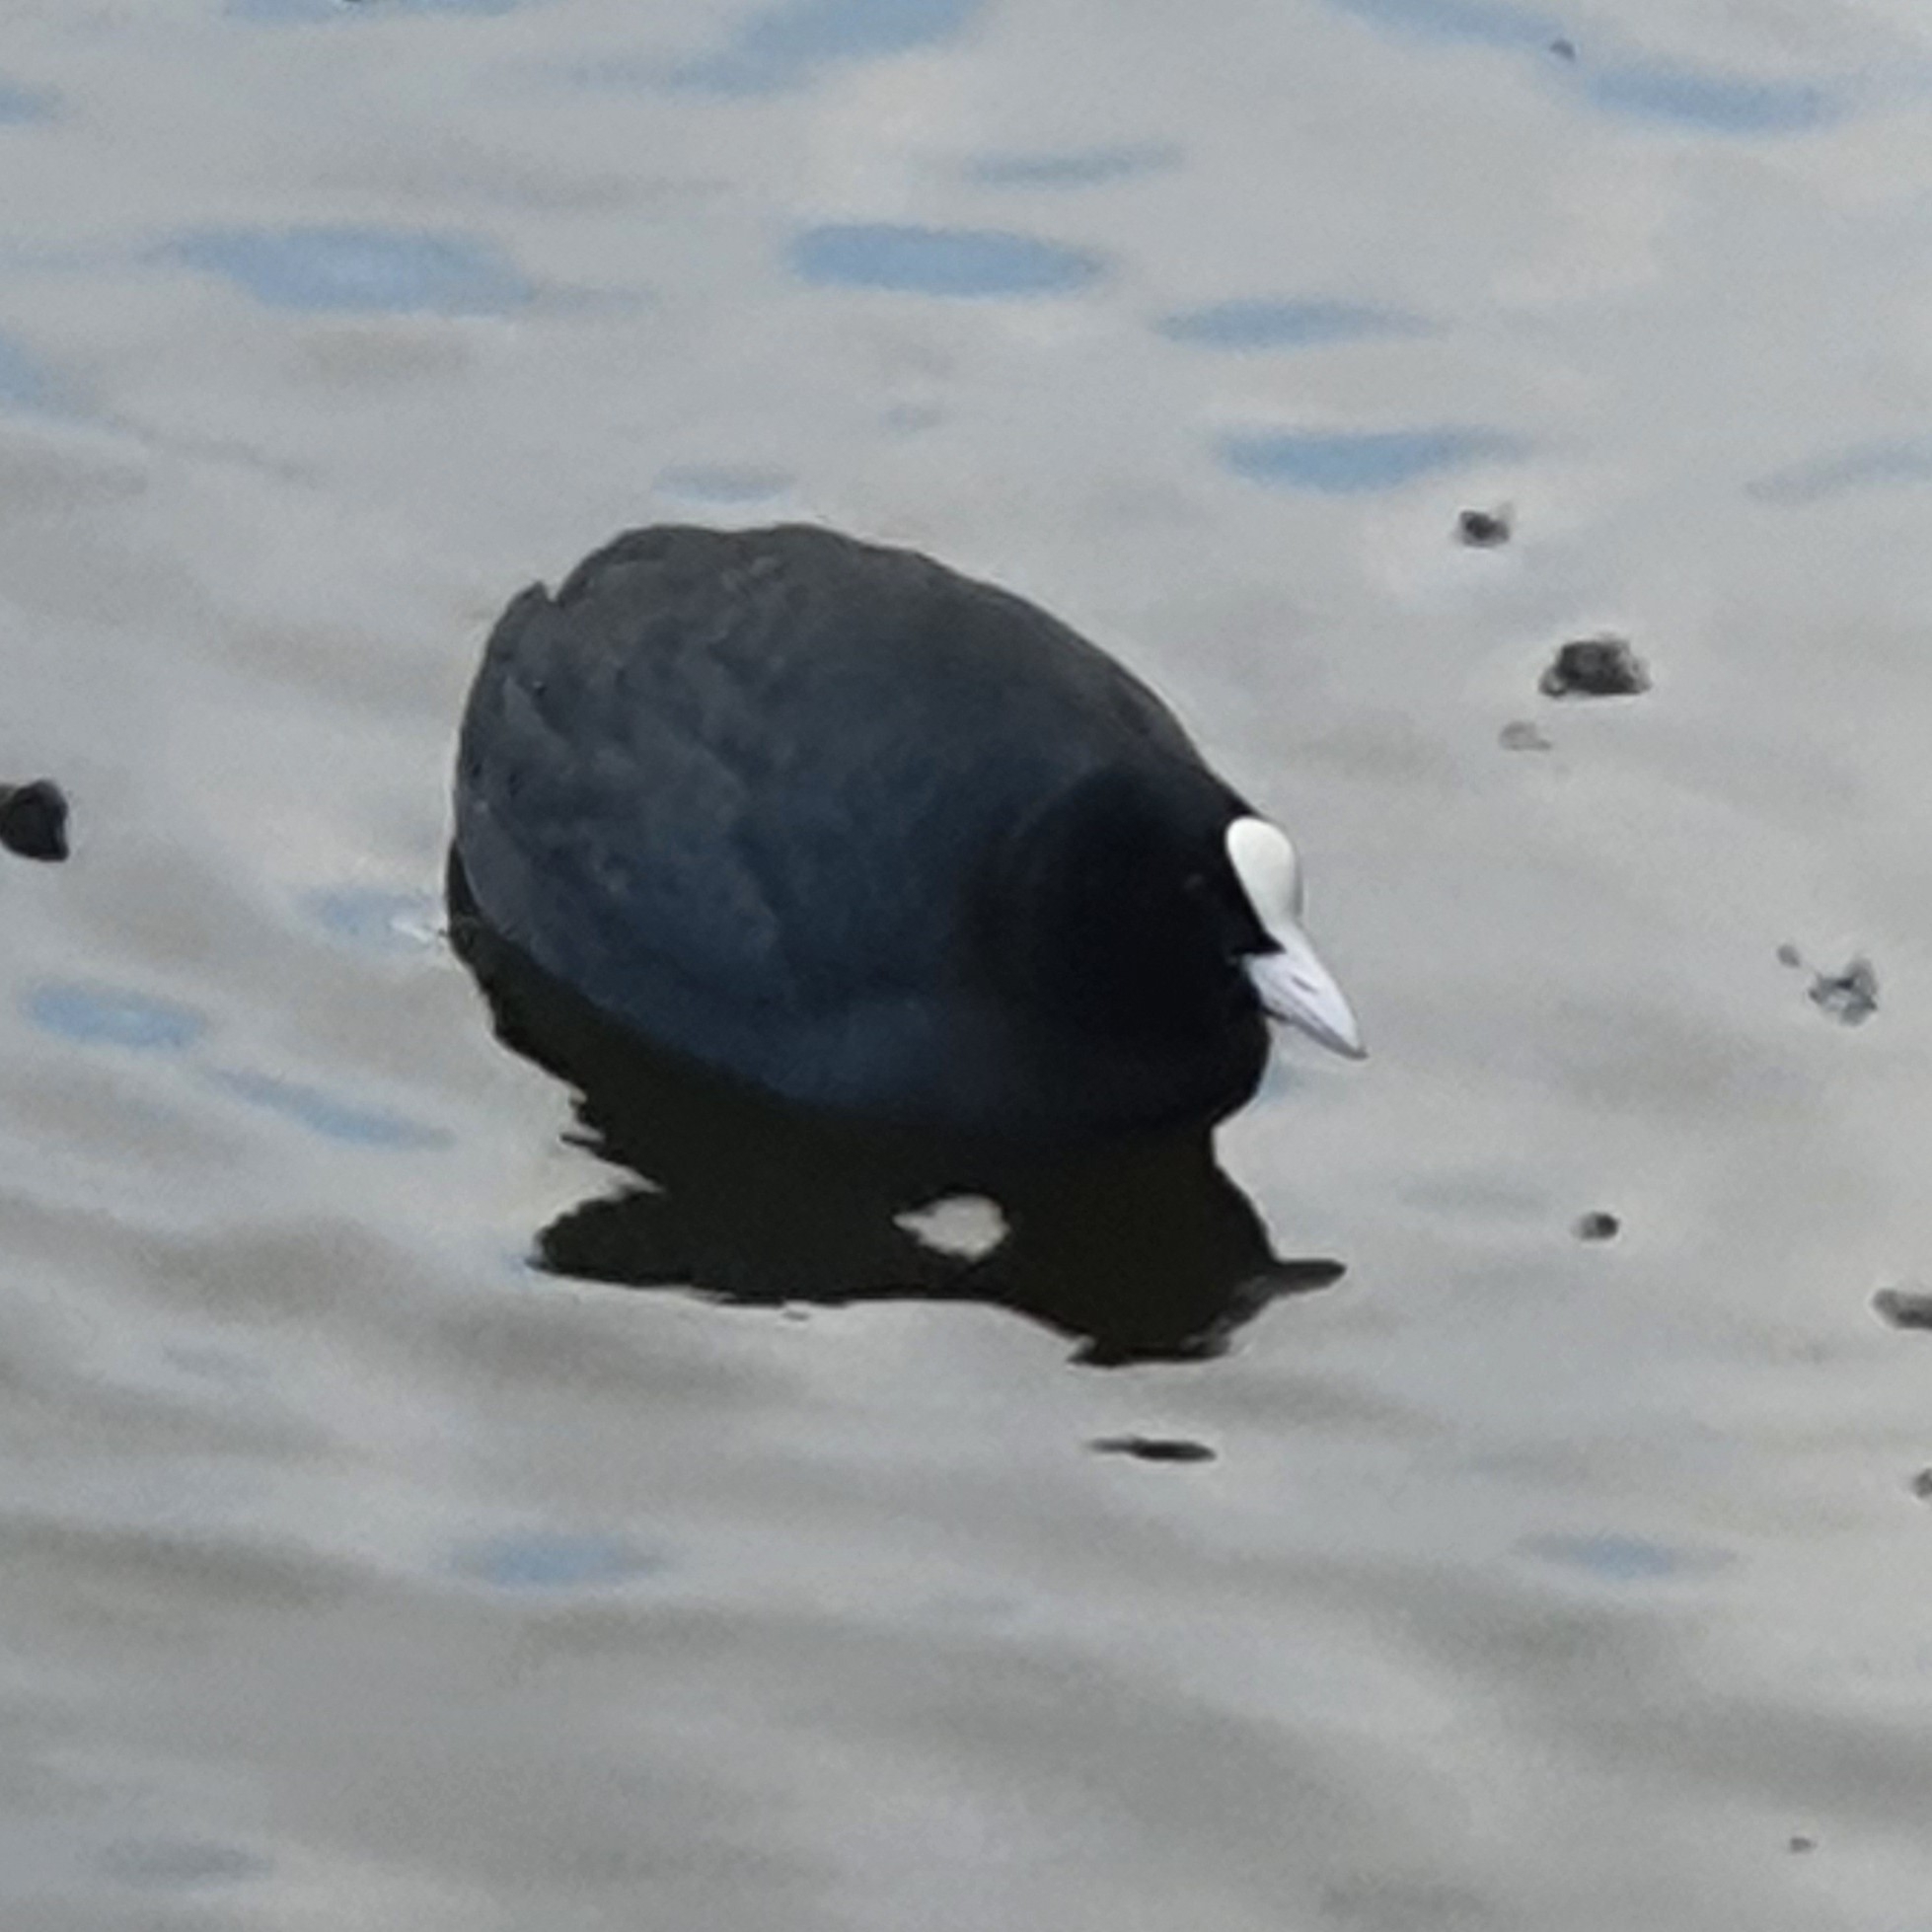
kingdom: Animalia
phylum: Chordata
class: Aves
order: Gruiformes
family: Rallidae
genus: Fulica
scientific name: Fulica atra
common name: Eurasian coot
